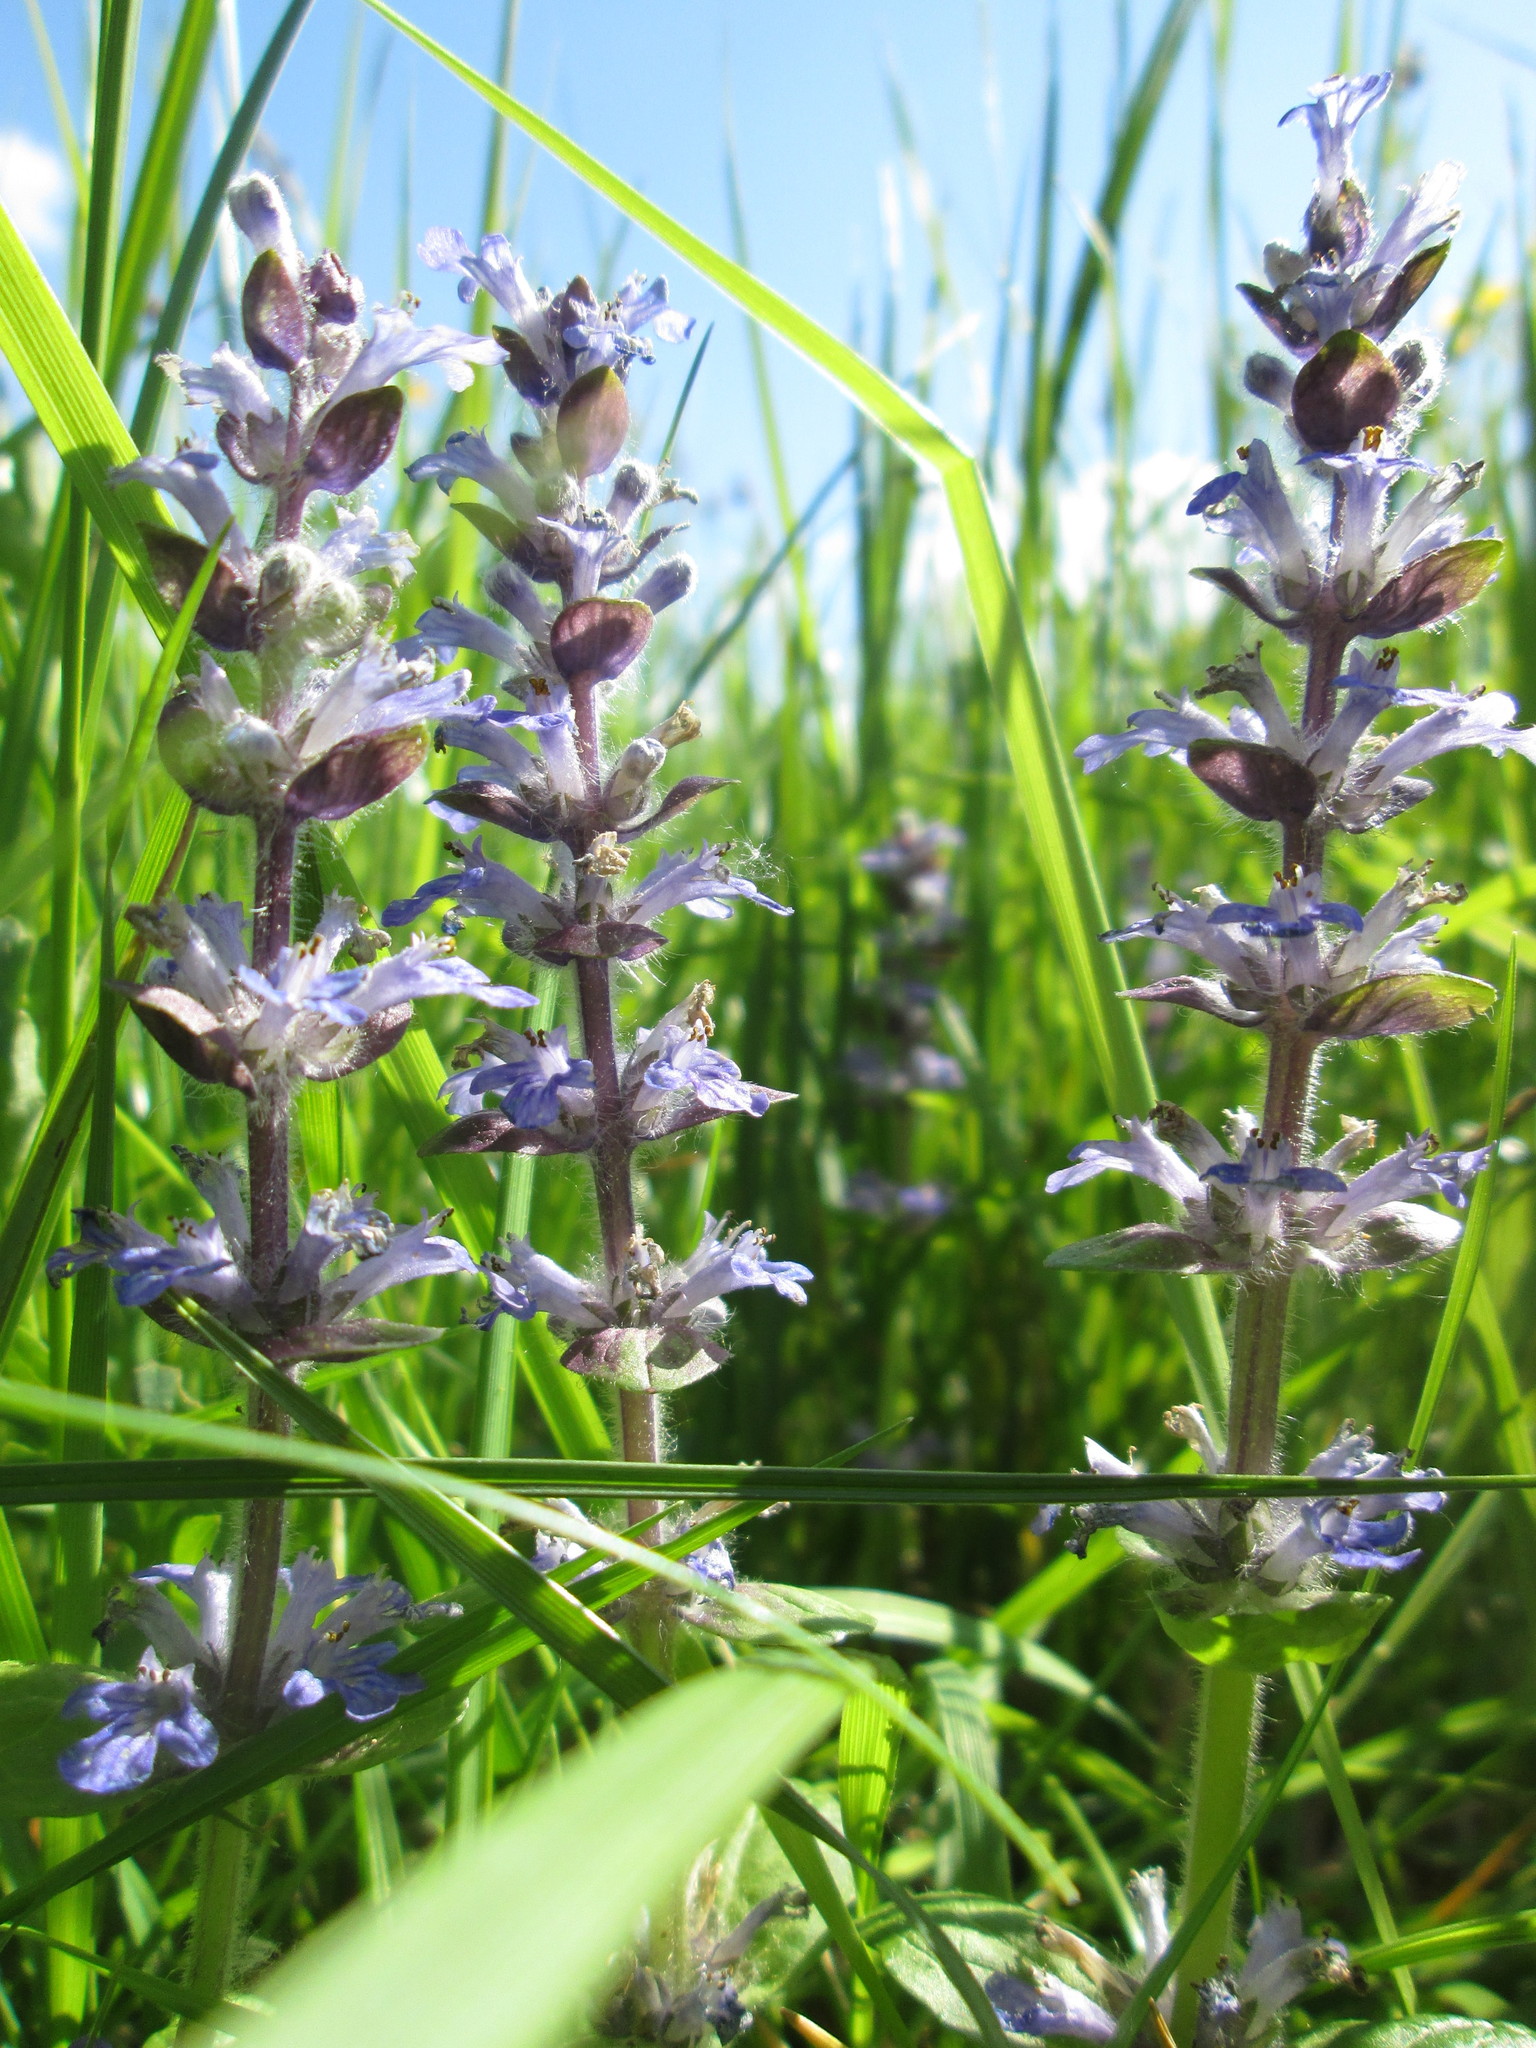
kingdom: Plantae
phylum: Tracheophyta
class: Magnoliopsida
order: Lamiales
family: Lamiaceae
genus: Ajuga
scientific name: Ajuga reptans
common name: Bugle
